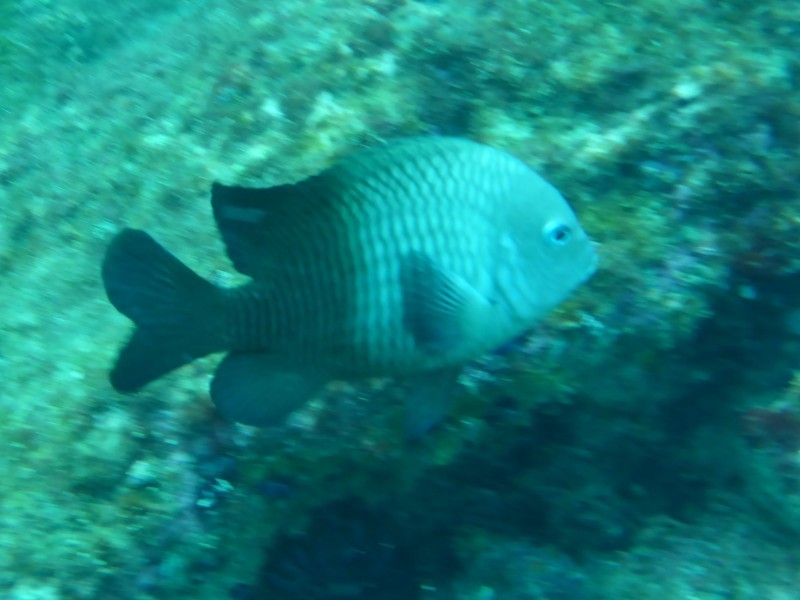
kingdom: Animalia
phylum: Chordata
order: Perciformes
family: Pomacentridae
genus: Stegastes
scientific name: Stegastes acapulcoensis
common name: Acapulco damselfish
